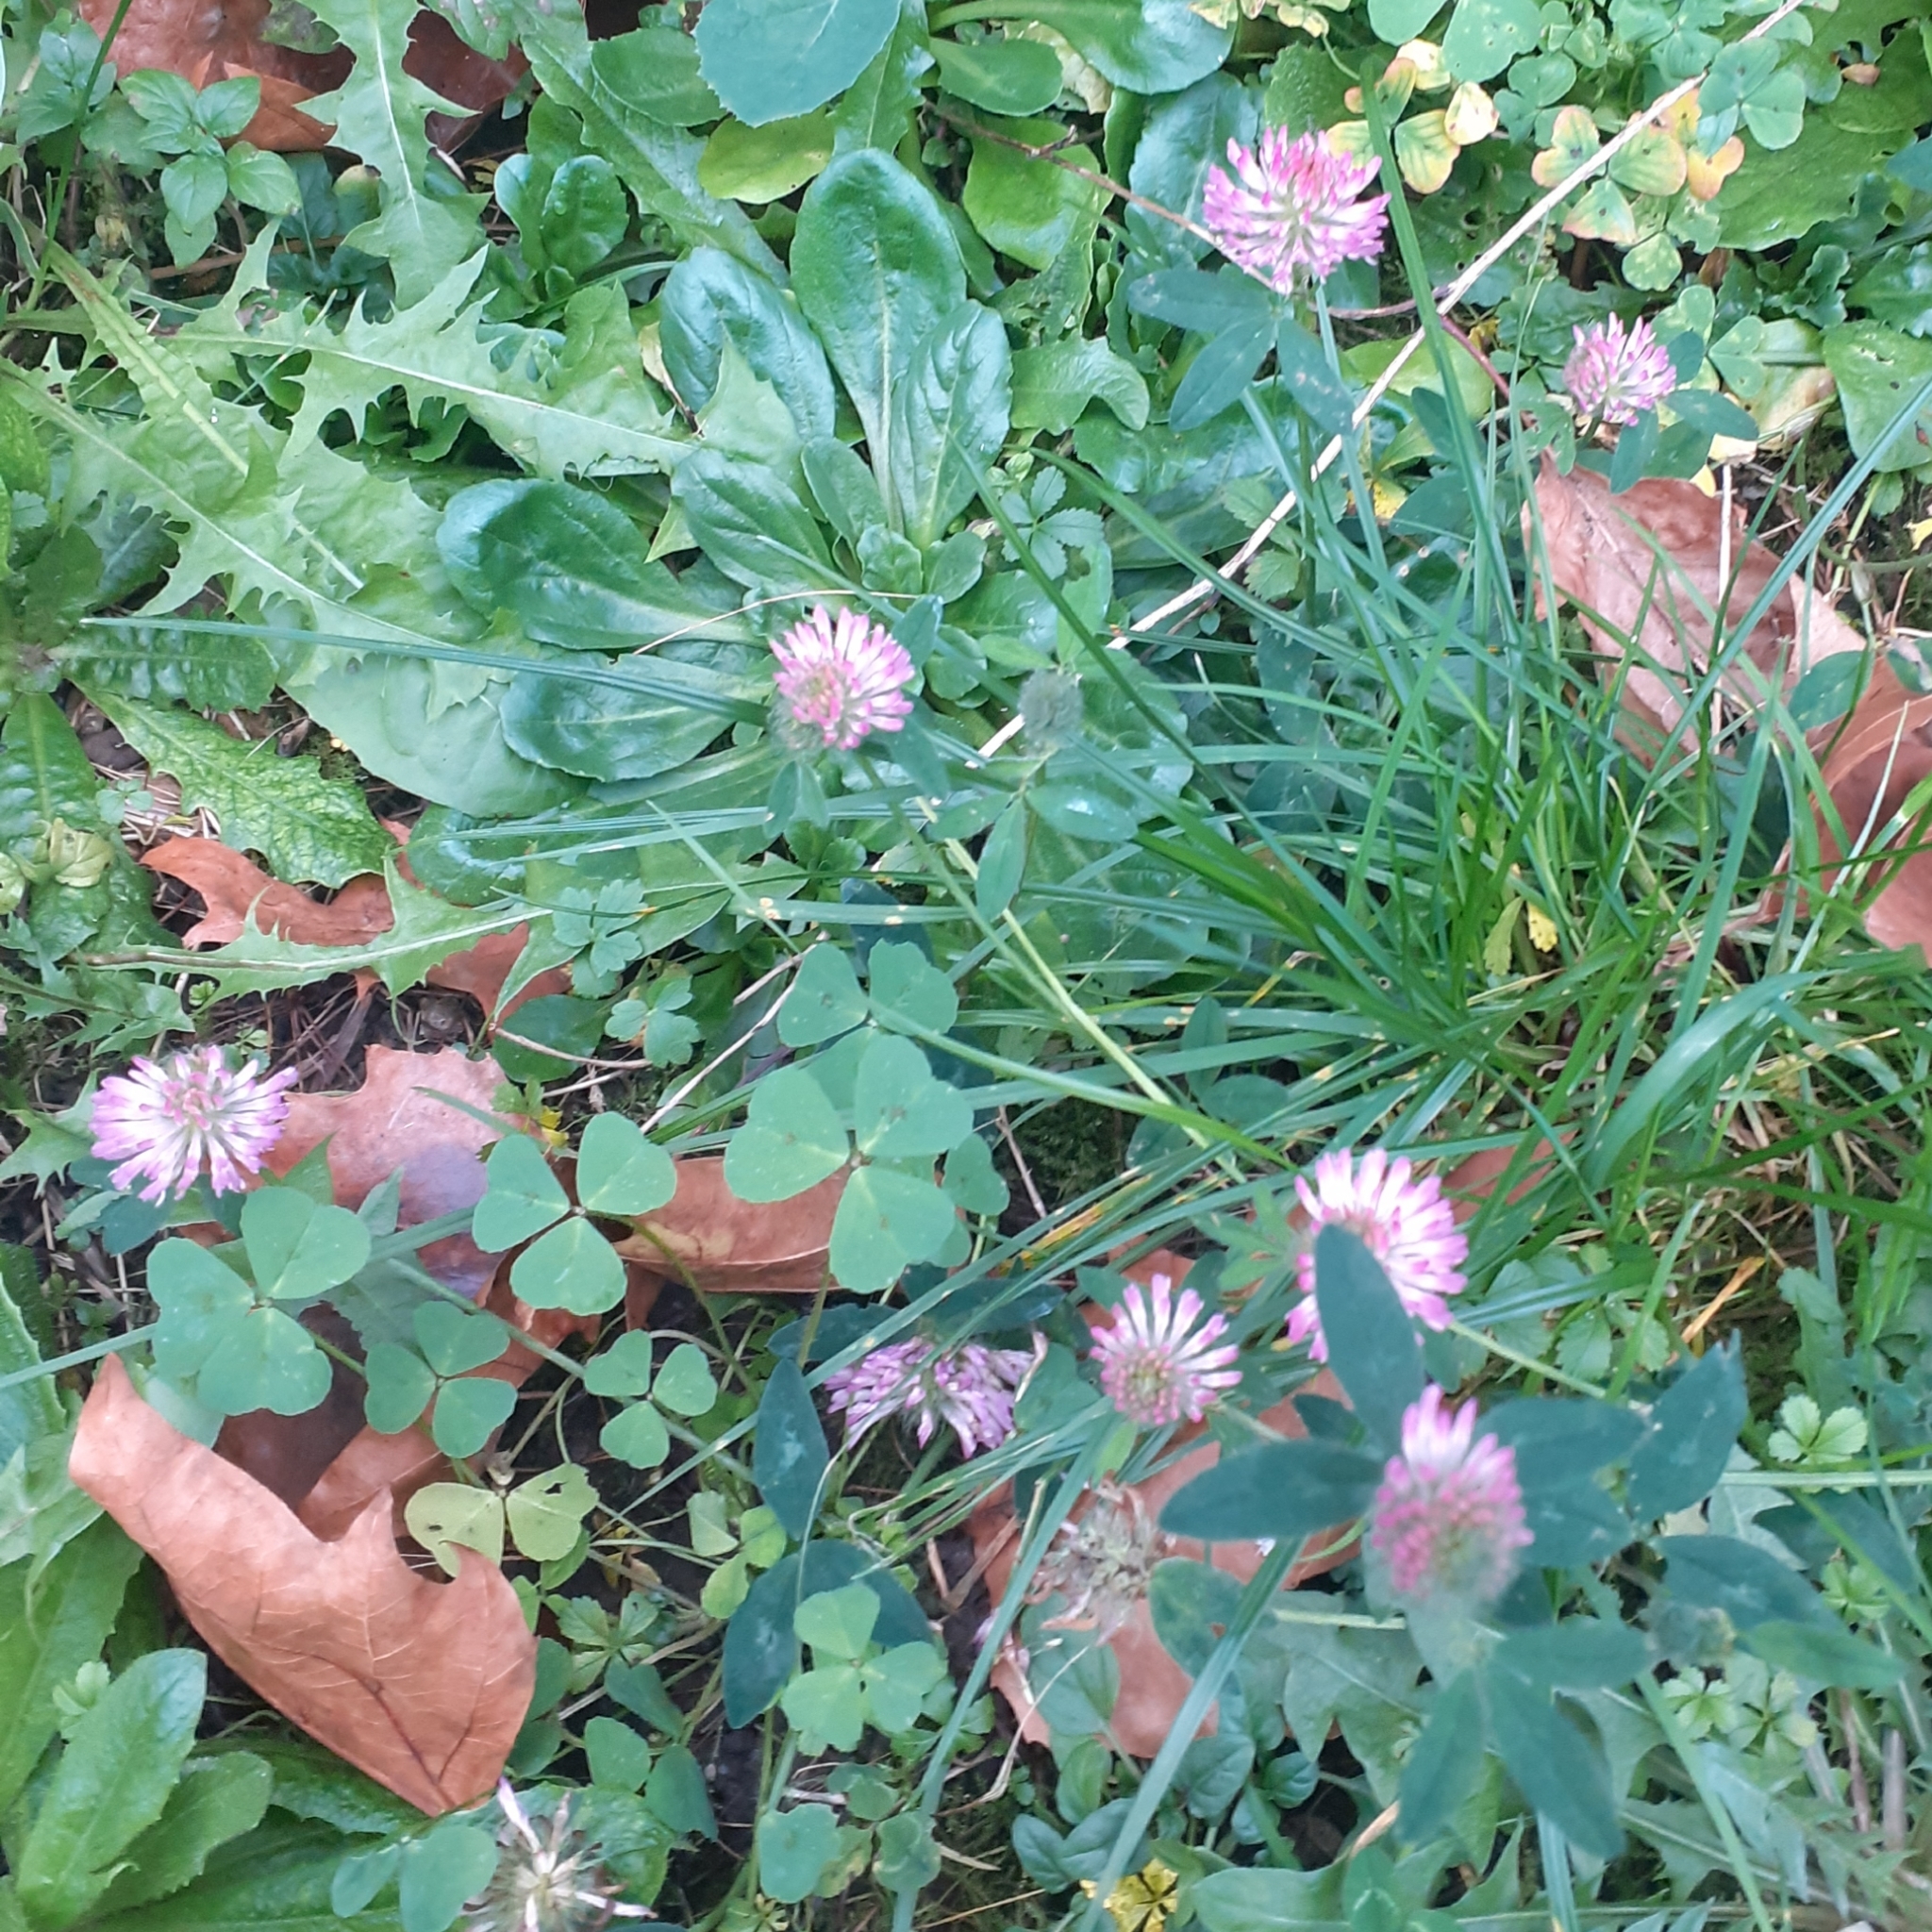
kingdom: Plantae
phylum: Tracheophyta
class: Magnoliopsida
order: Fabales
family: Fabaceae
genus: Trifolium
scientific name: Trifolium medium
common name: Zigzag clover
